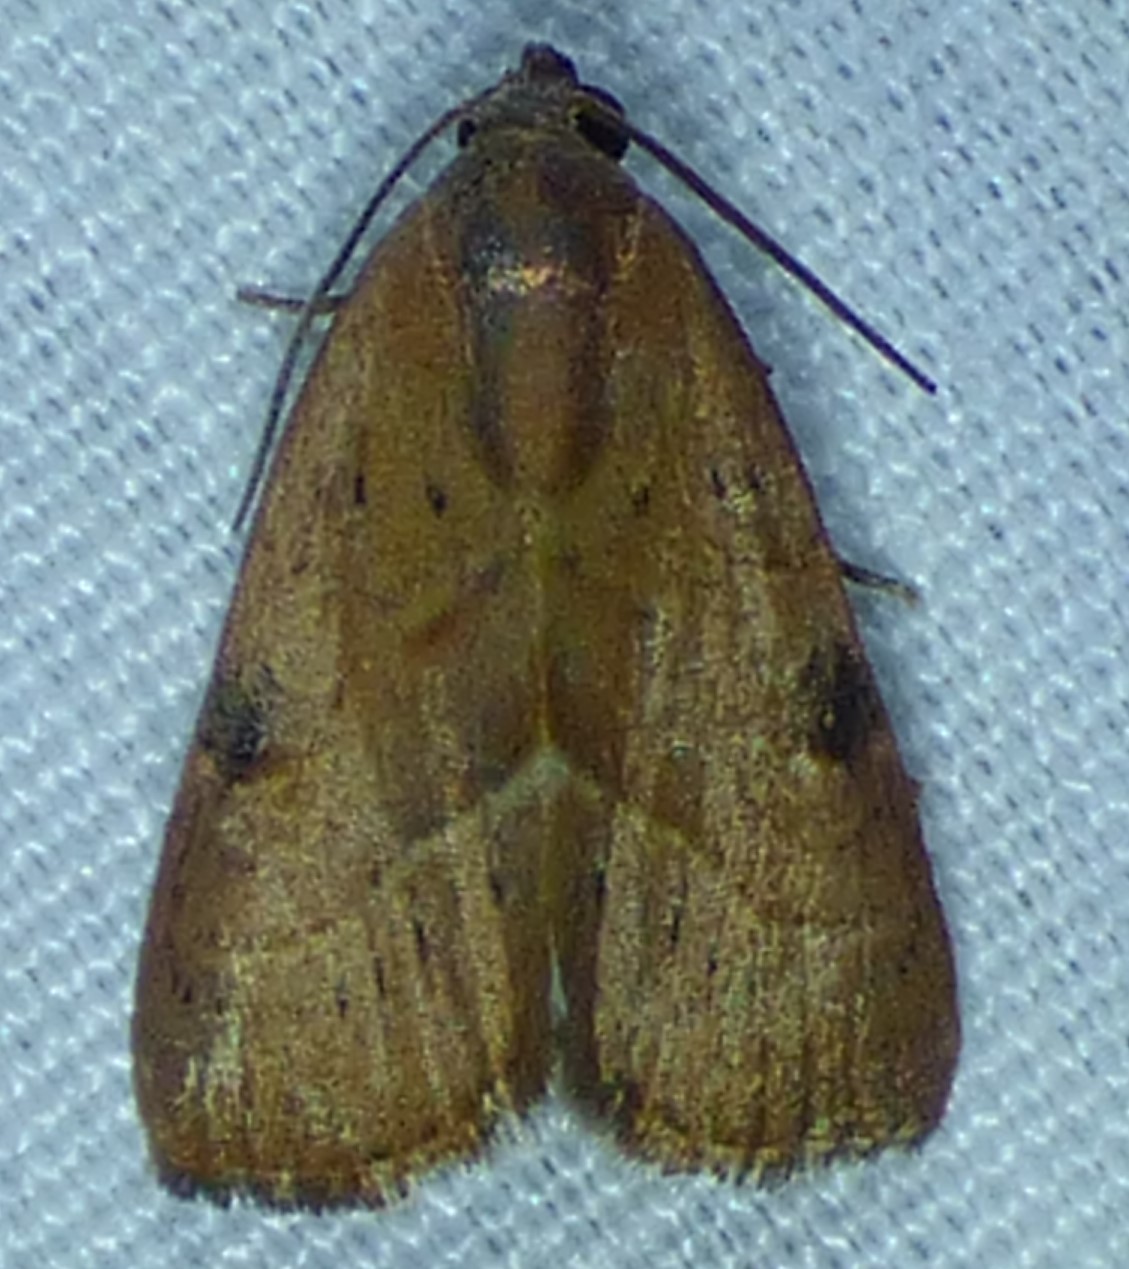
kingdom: Animalia
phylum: Arthropoda
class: Insecta
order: Lepidoptera
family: Noctuidae
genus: Galgula
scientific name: Galgula partita
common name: Wedgeling
